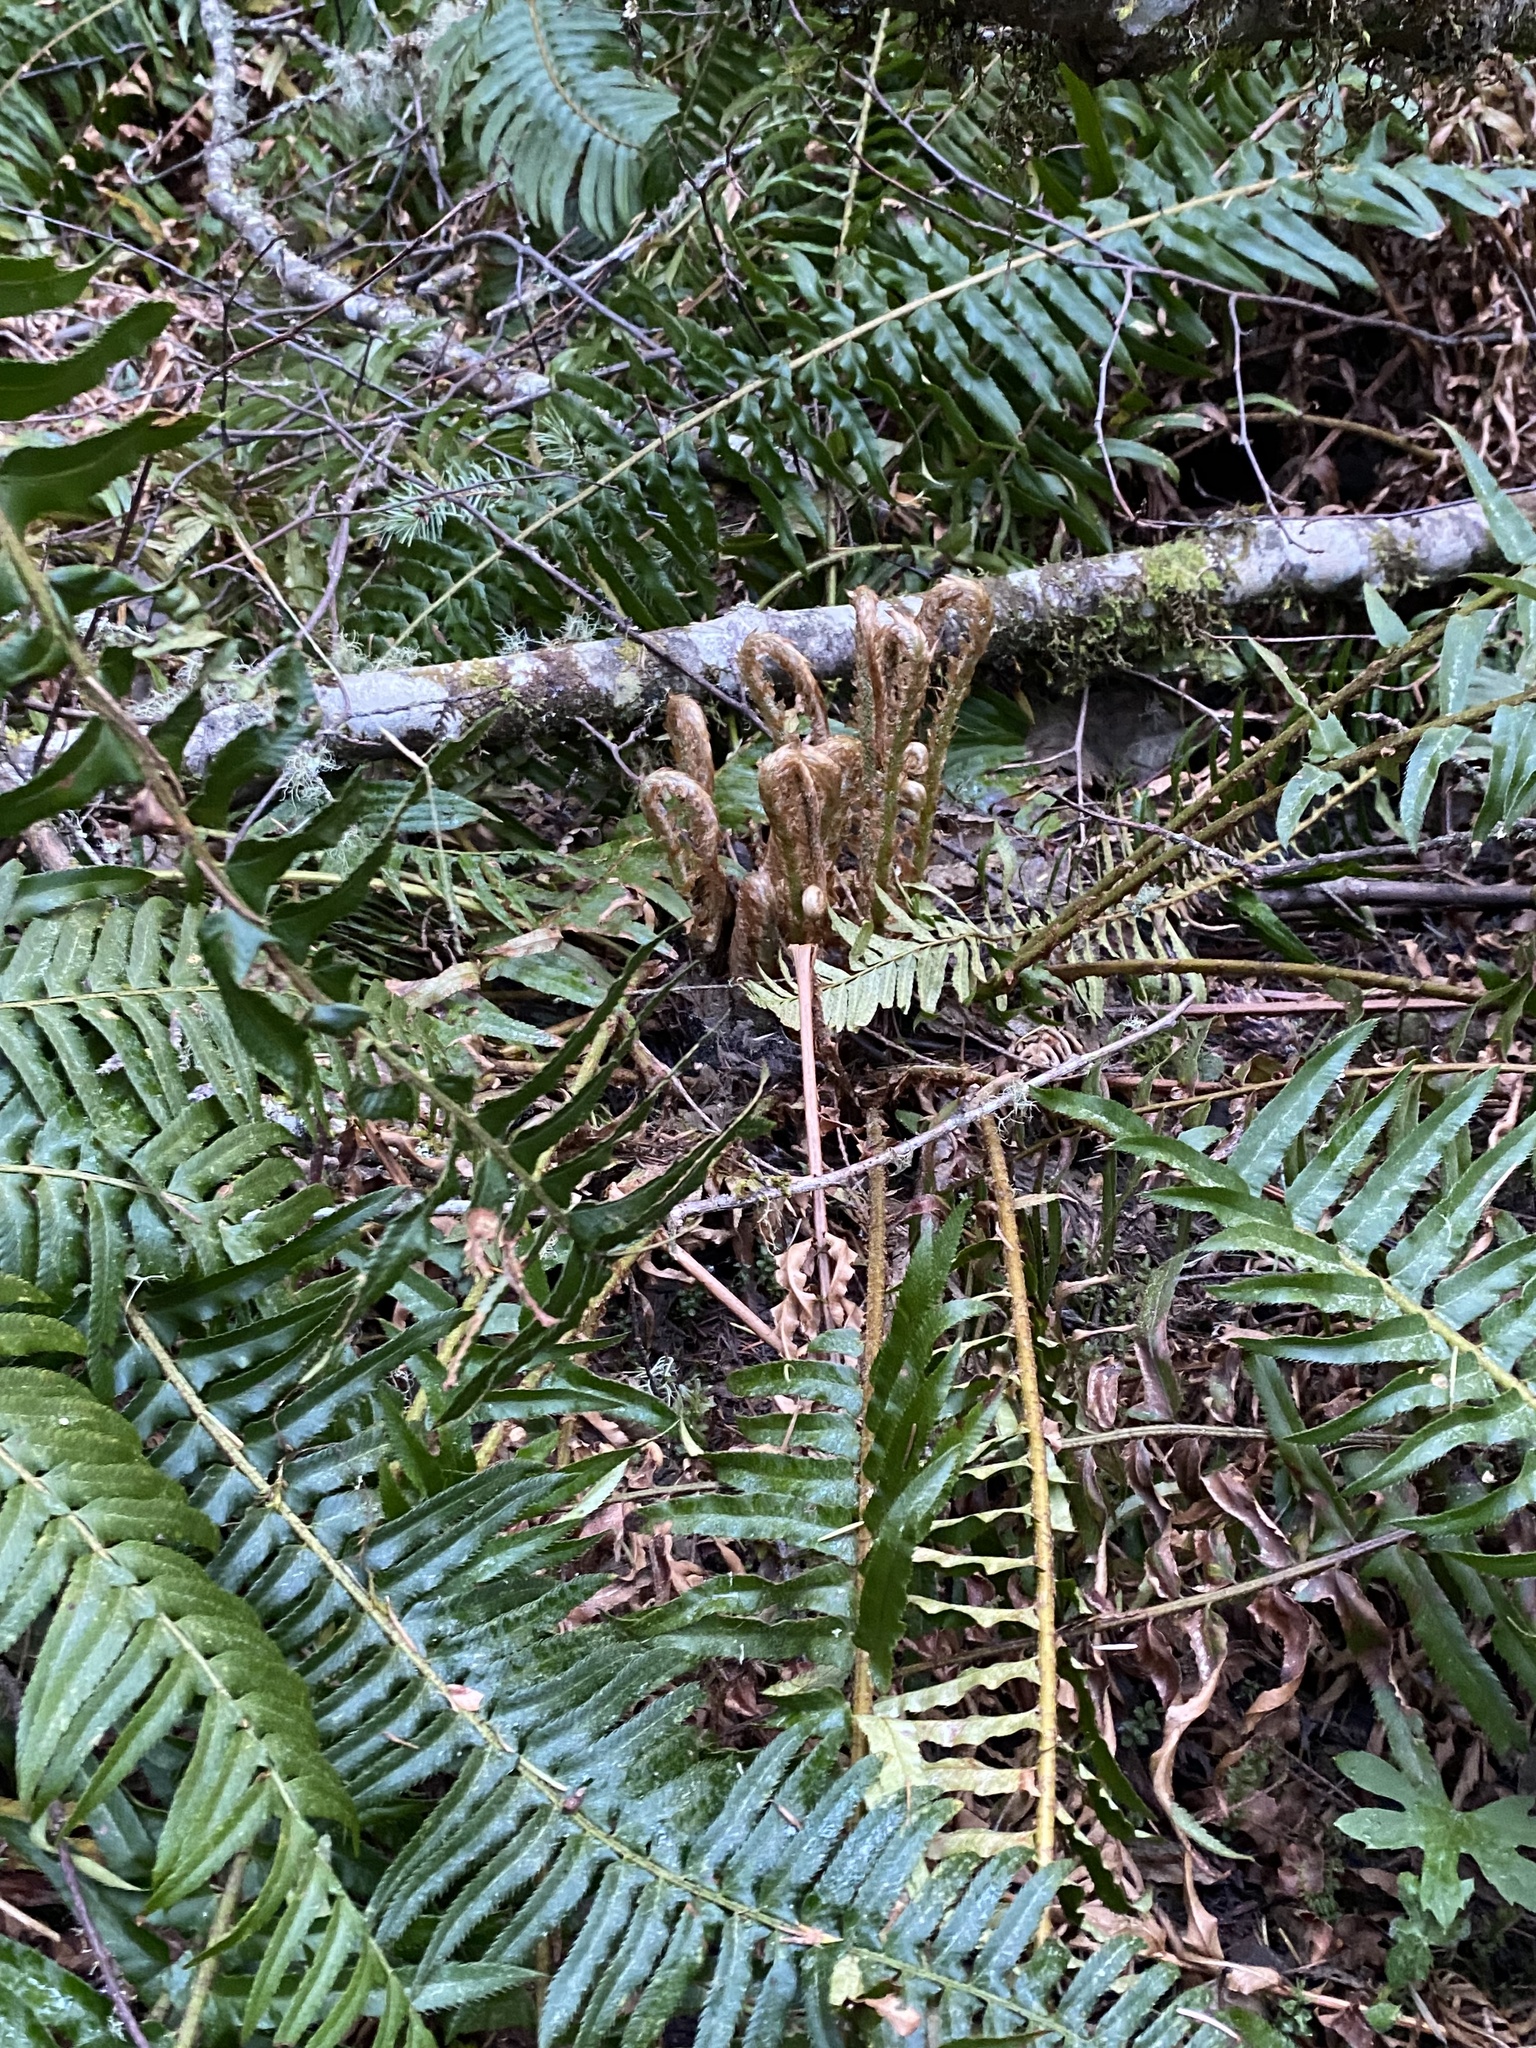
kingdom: Plantae
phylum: Tracheophyta
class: Polypodiopsida
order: Polypodiales
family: Dryopteridaceae
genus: Polystichum
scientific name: Polystichum munitum
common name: Western sword-fern
